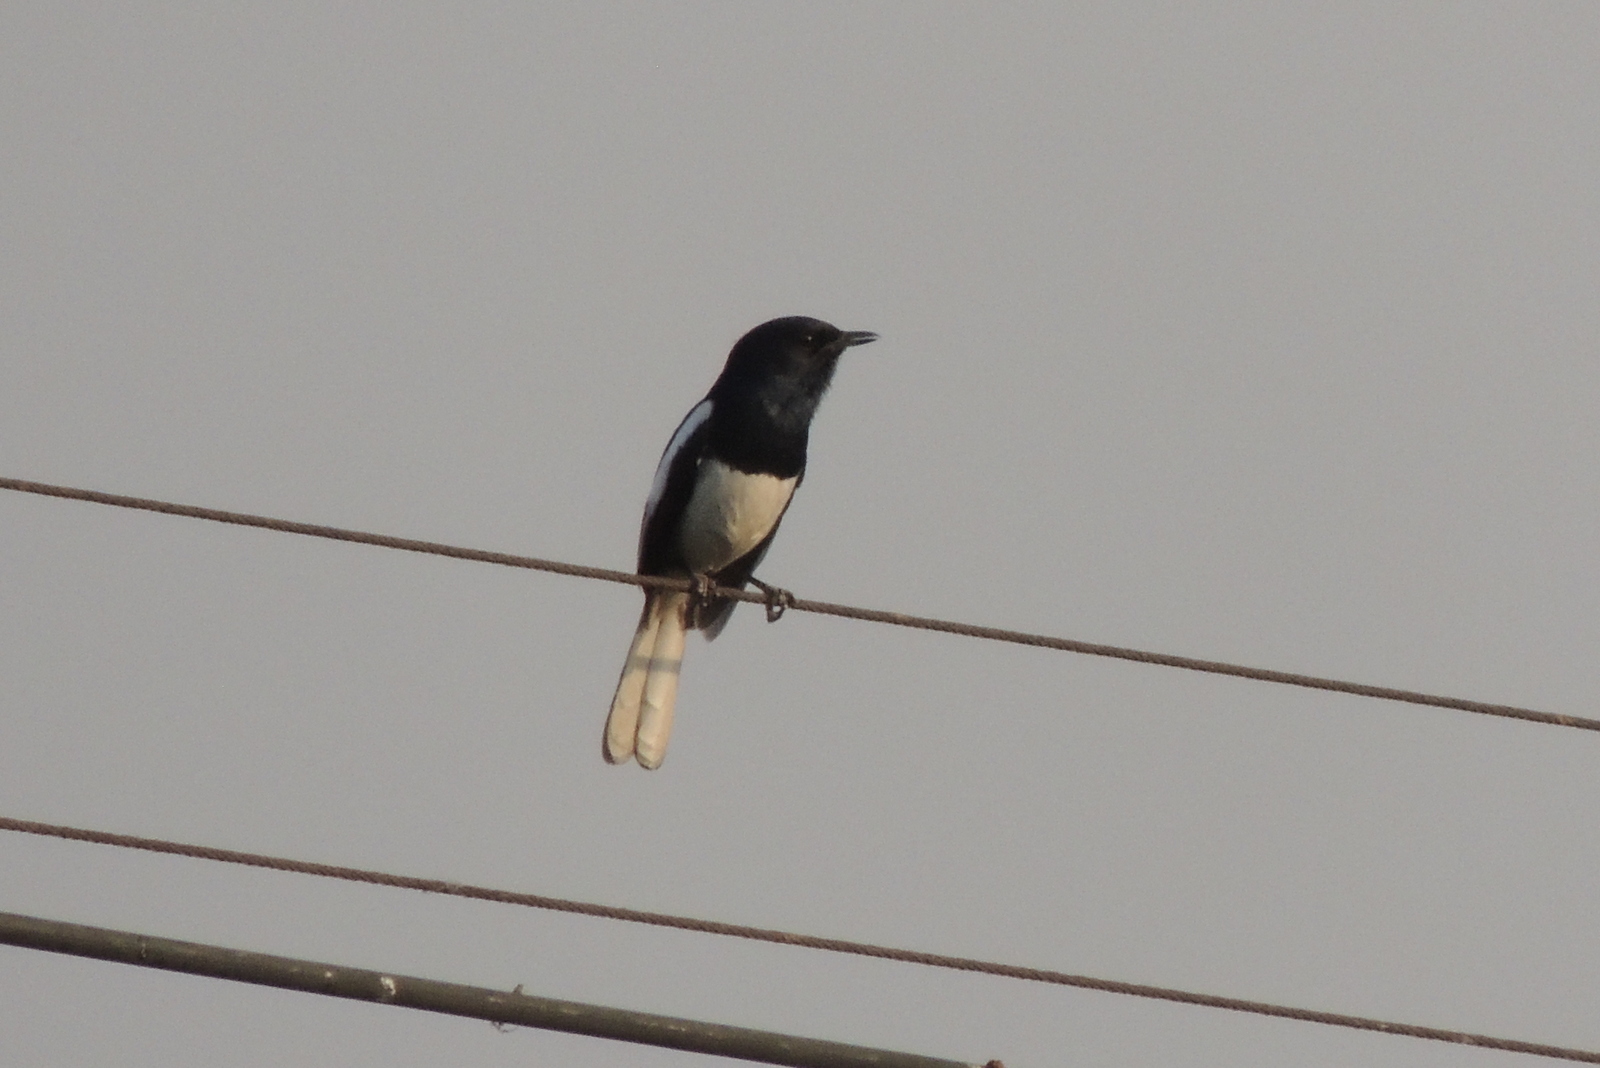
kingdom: Animalia
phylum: Chordata
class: Aves
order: Passeriformes
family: Muscicapidae
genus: Copsychus
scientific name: Copsychus saularis
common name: Oriental magpie-robin
